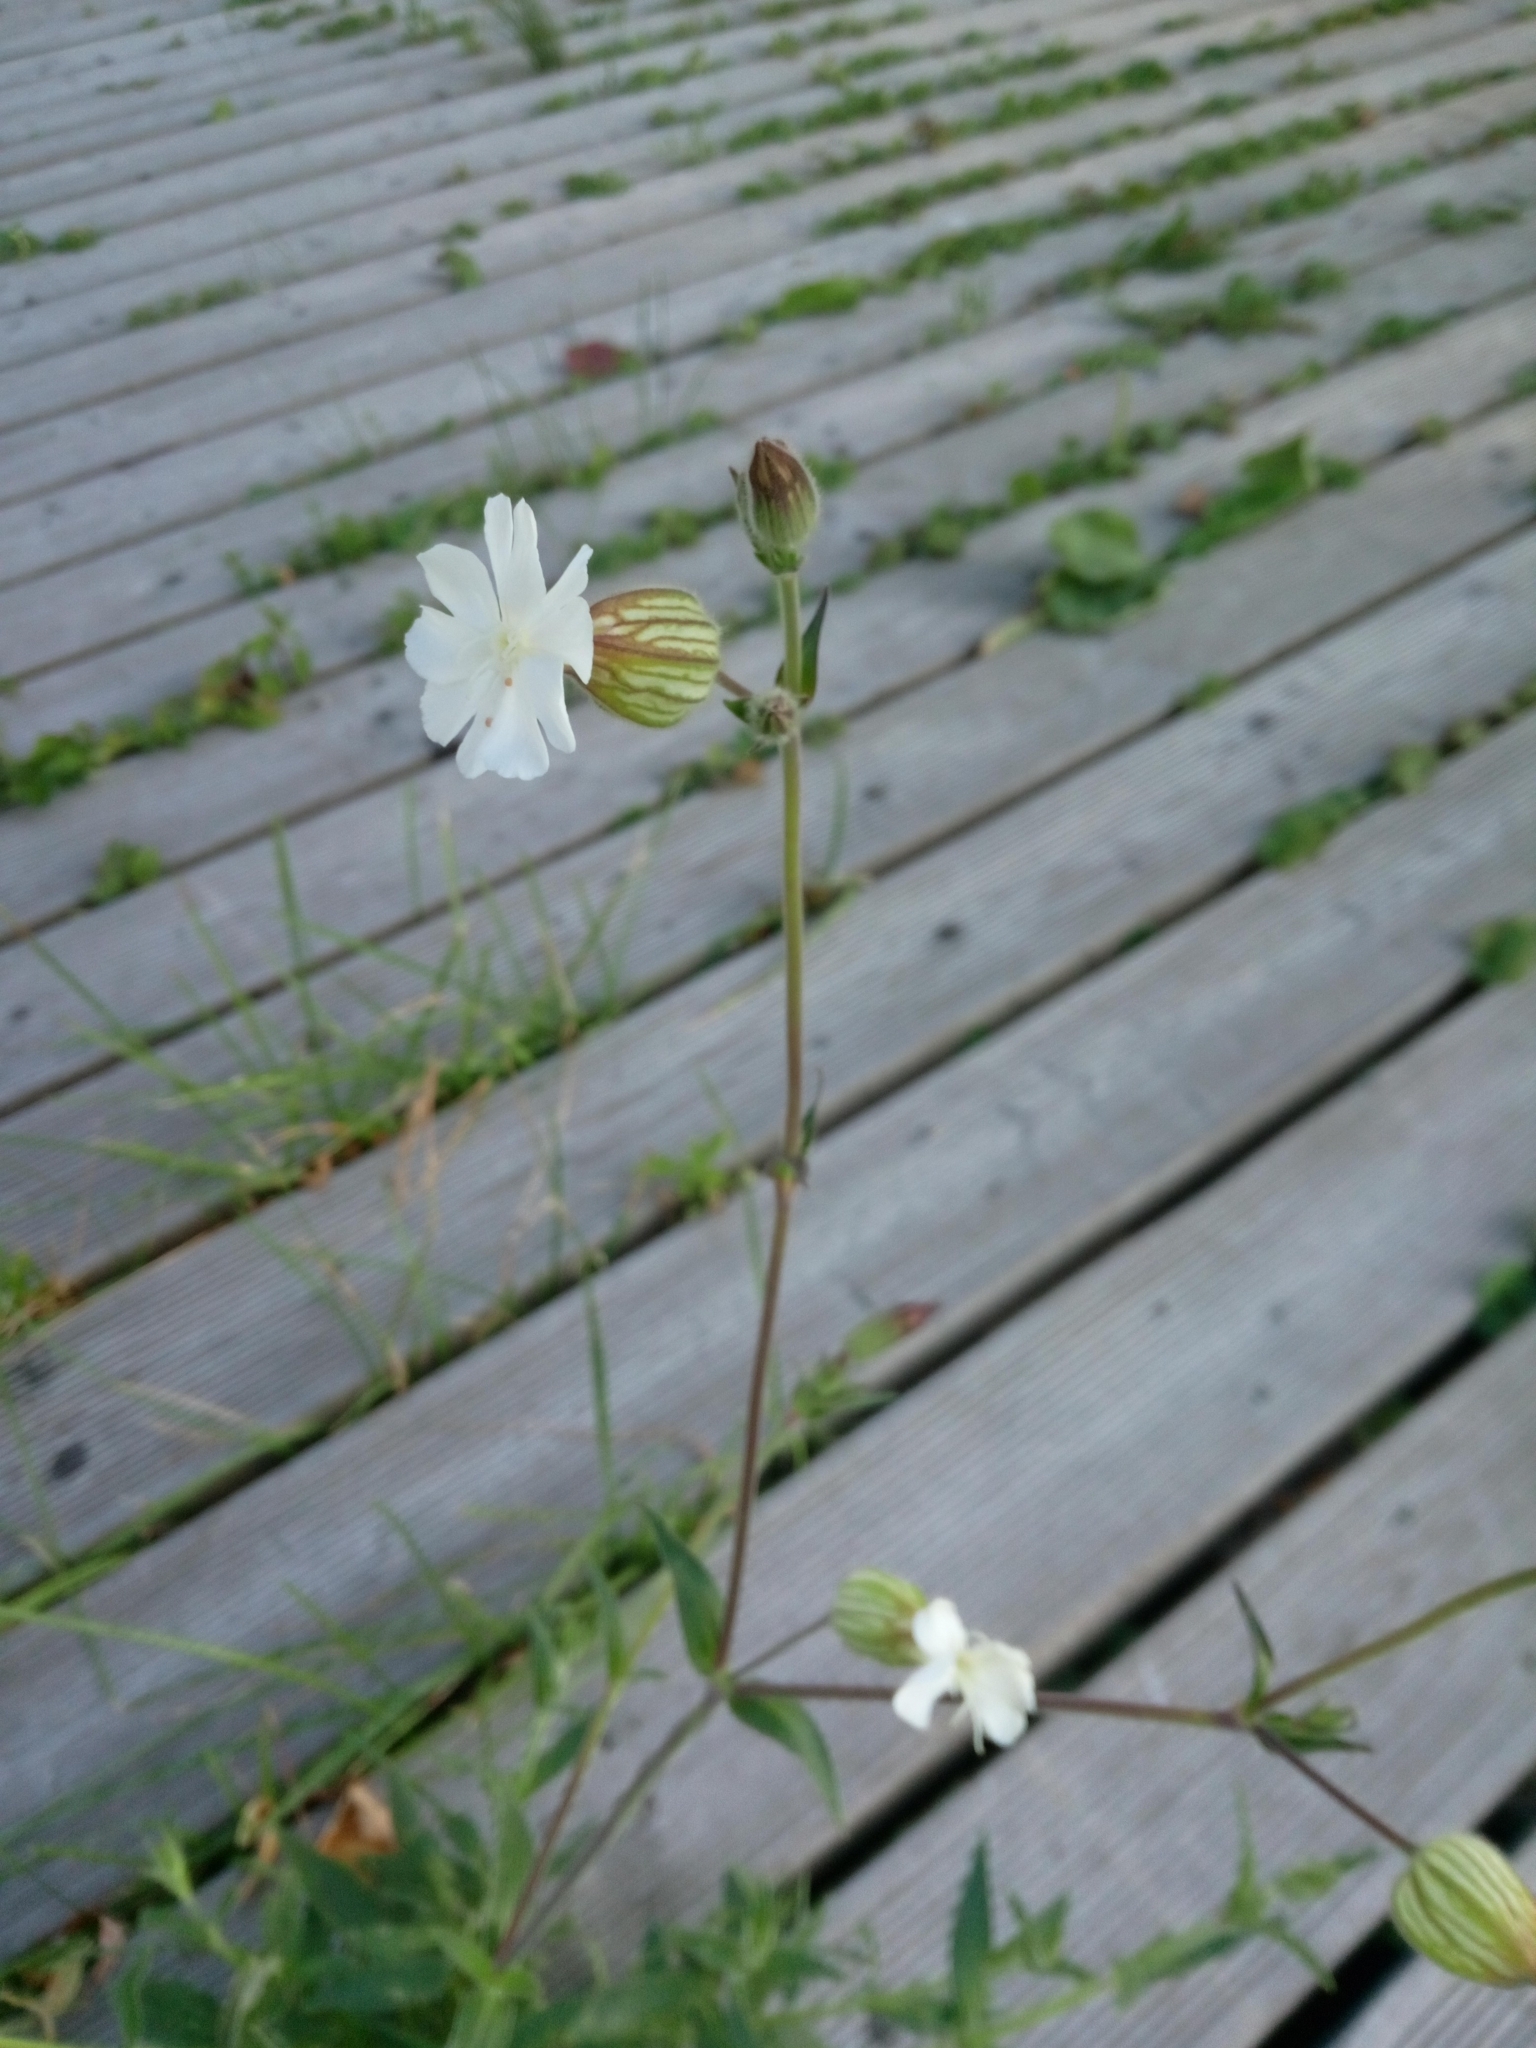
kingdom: Plantae
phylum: Tracheophyta
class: Magnoliopsida
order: Caryophyllales
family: Caryophyllaceae
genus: Silene
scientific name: Silene latifolia
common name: White campion
